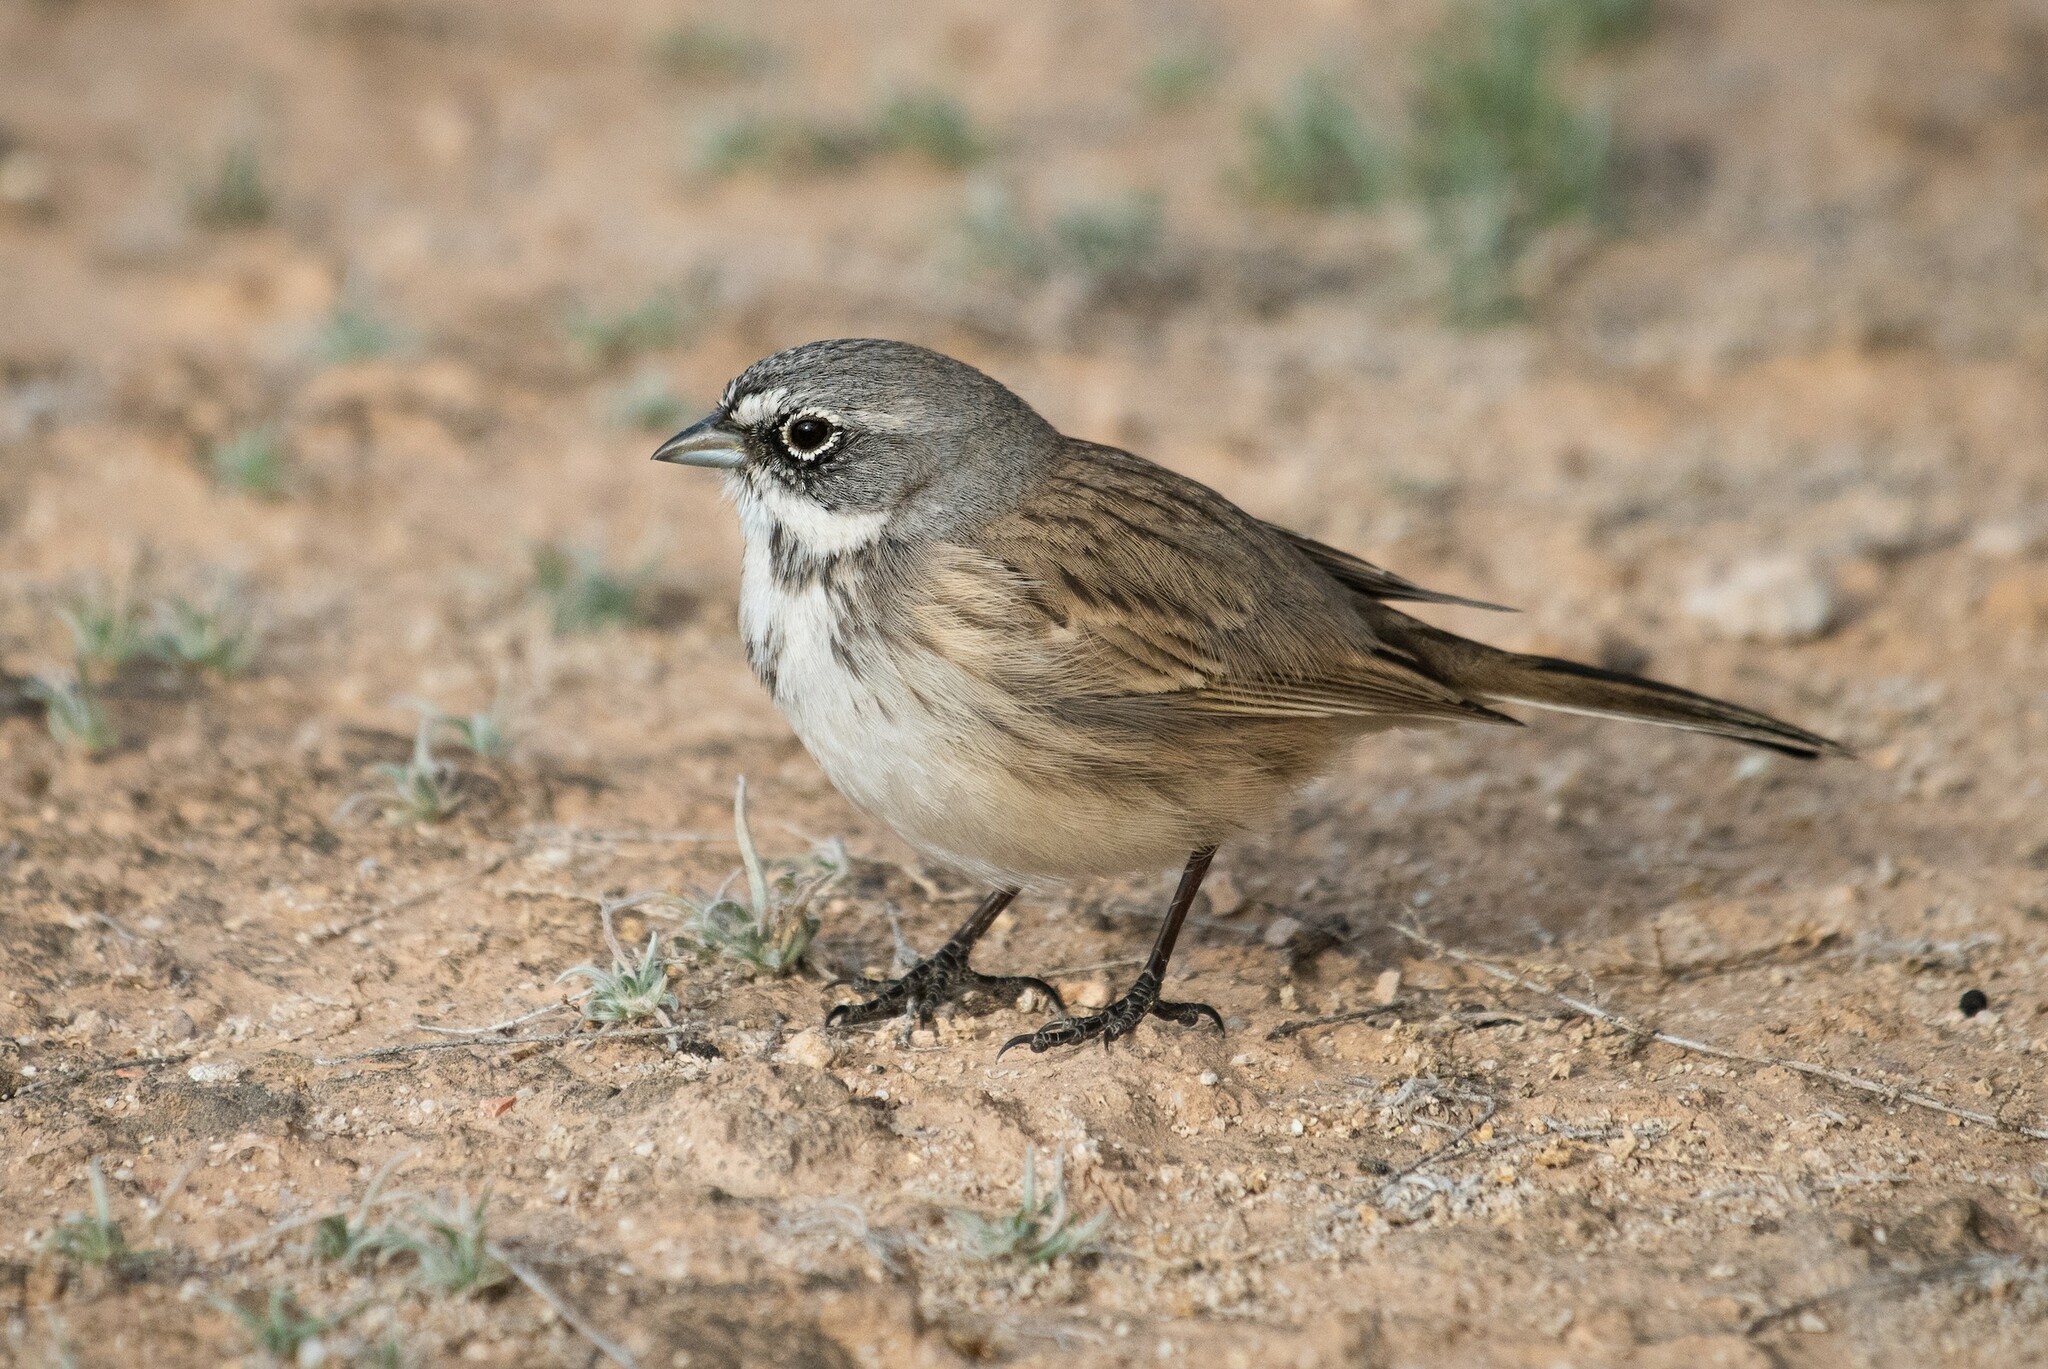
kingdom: Animalia
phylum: Chordata
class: Aves
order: Passeriformes
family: Passerellidae
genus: Artemisiospiza
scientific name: Artemisiospiza nevadensis
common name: Sagebrush sparrow
